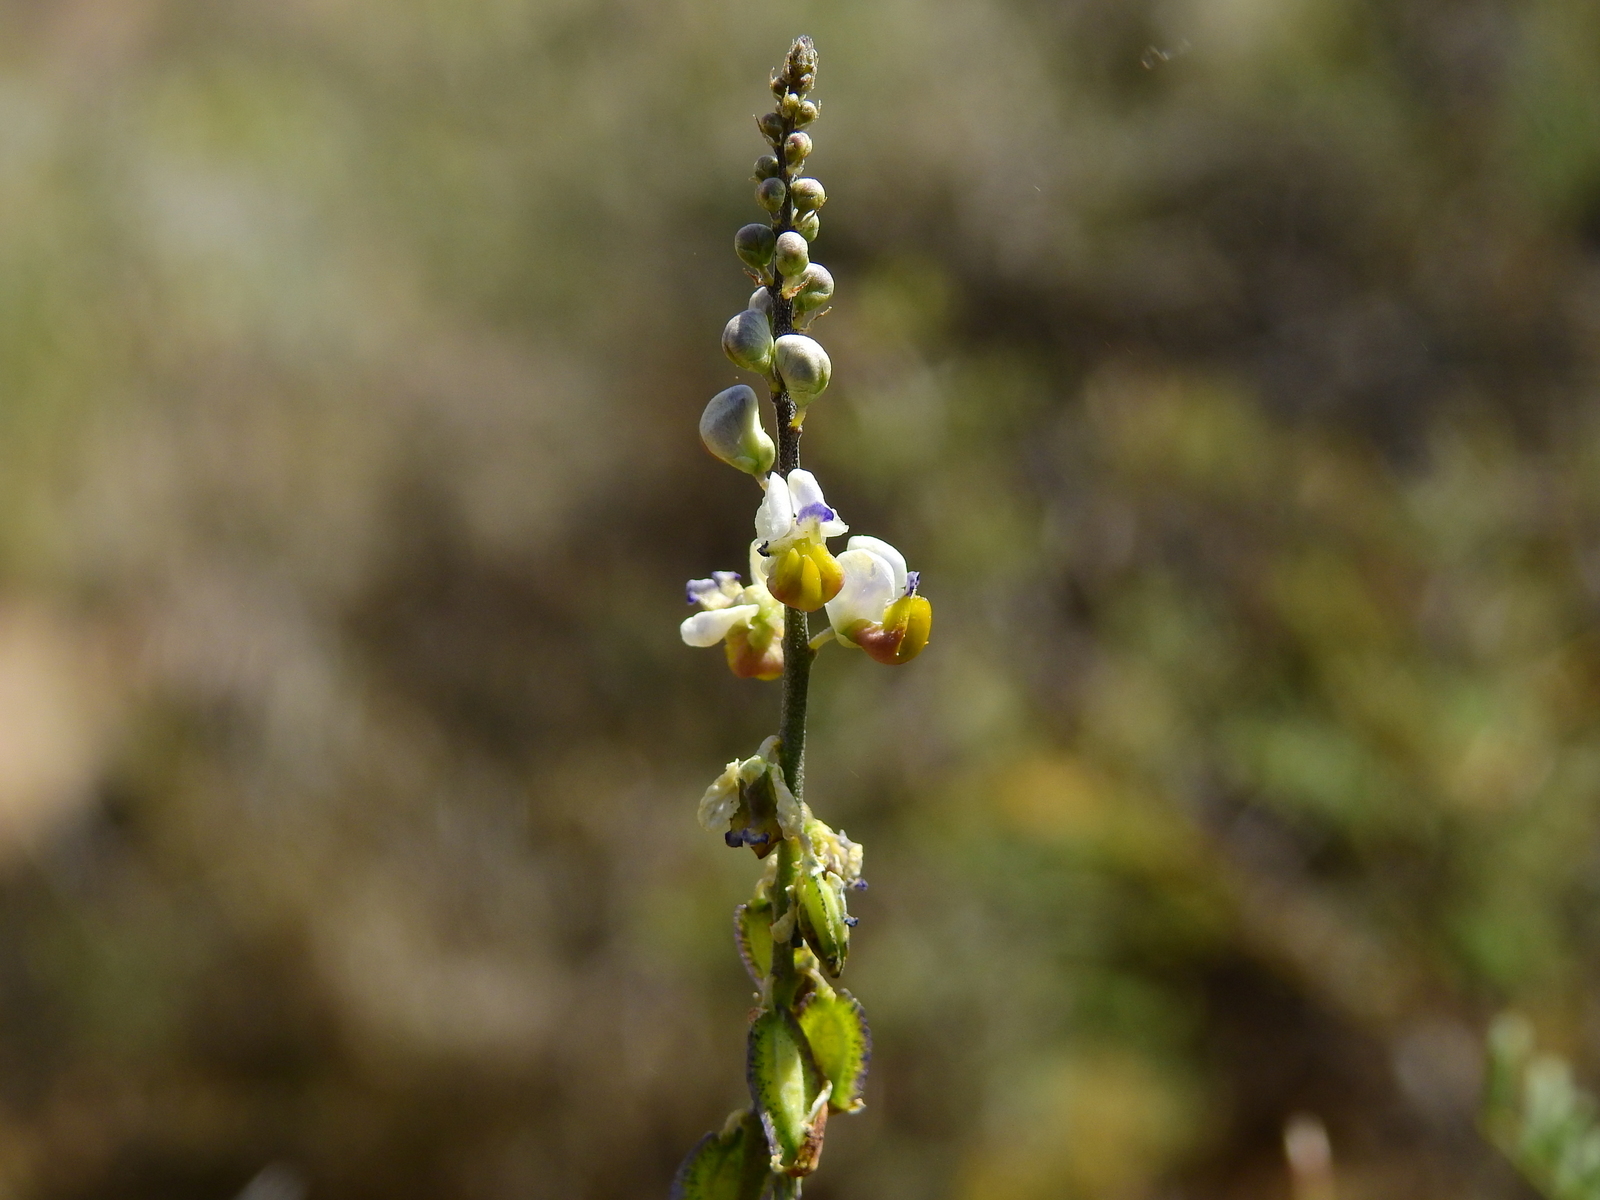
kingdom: Plantae
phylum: Tracheophyta
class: Magnoliopsida
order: Fabales
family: Polygalaceae
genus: Monnina
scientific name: Monnina dictyocarpa
